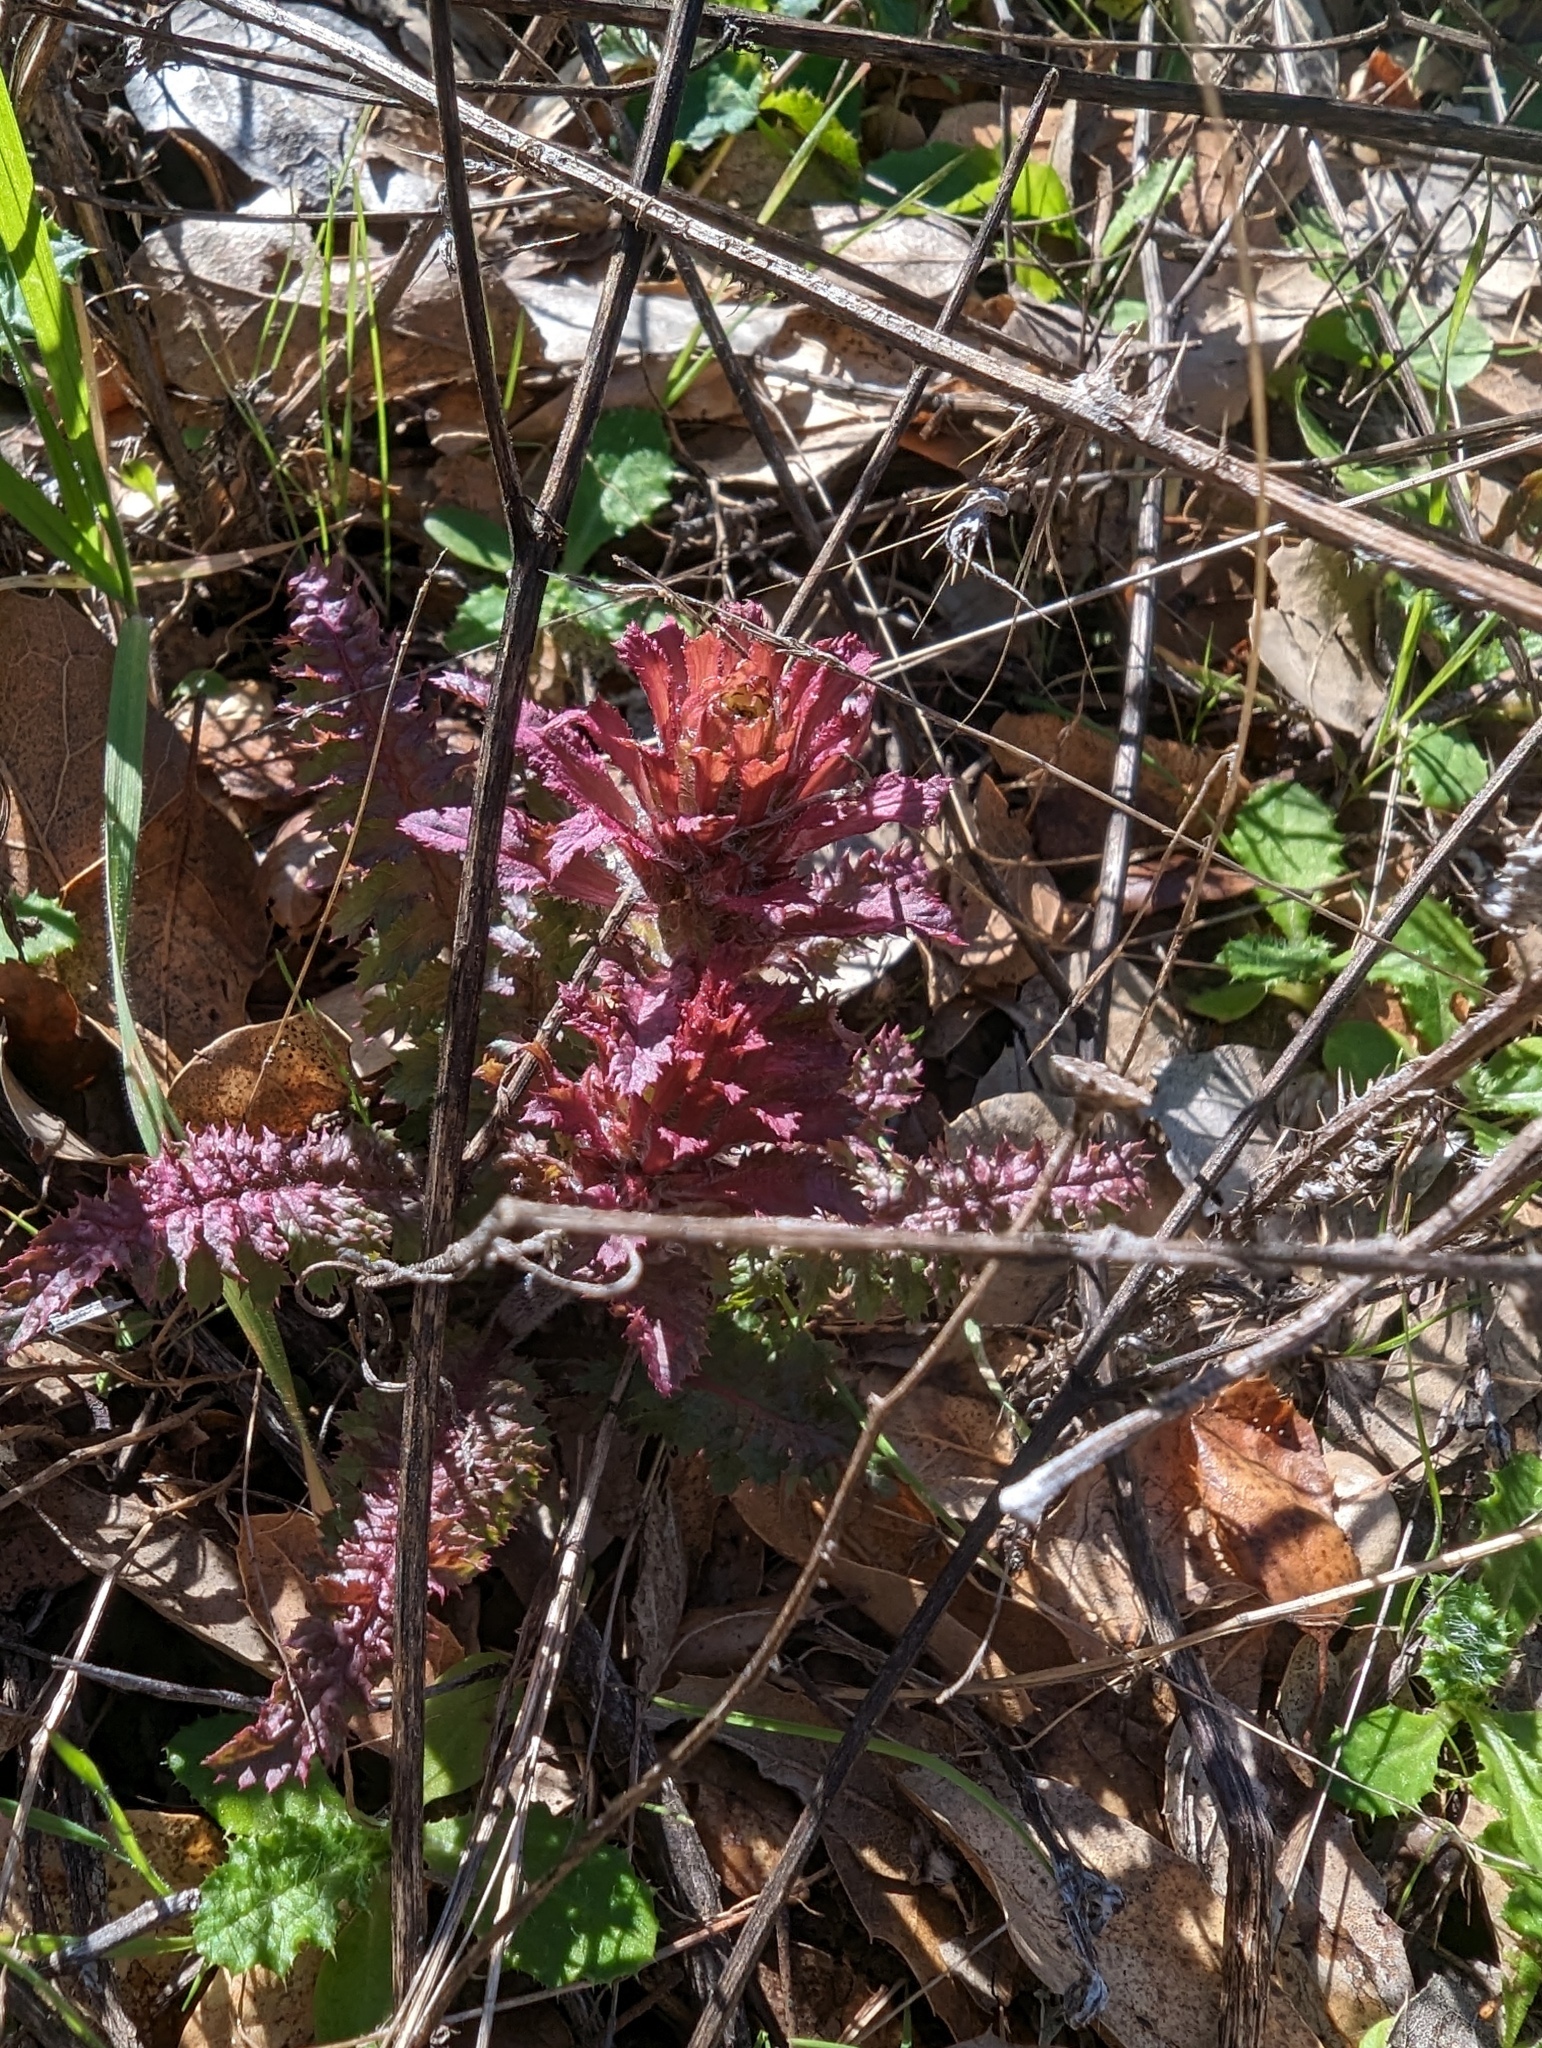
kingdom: Plantae
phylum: Tracheophyta
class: Magnoliopsida
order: Lamiales
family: Orobanchaceae
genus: Pedicularis
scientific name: Pedicularis densiflora
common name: Indian warrior
